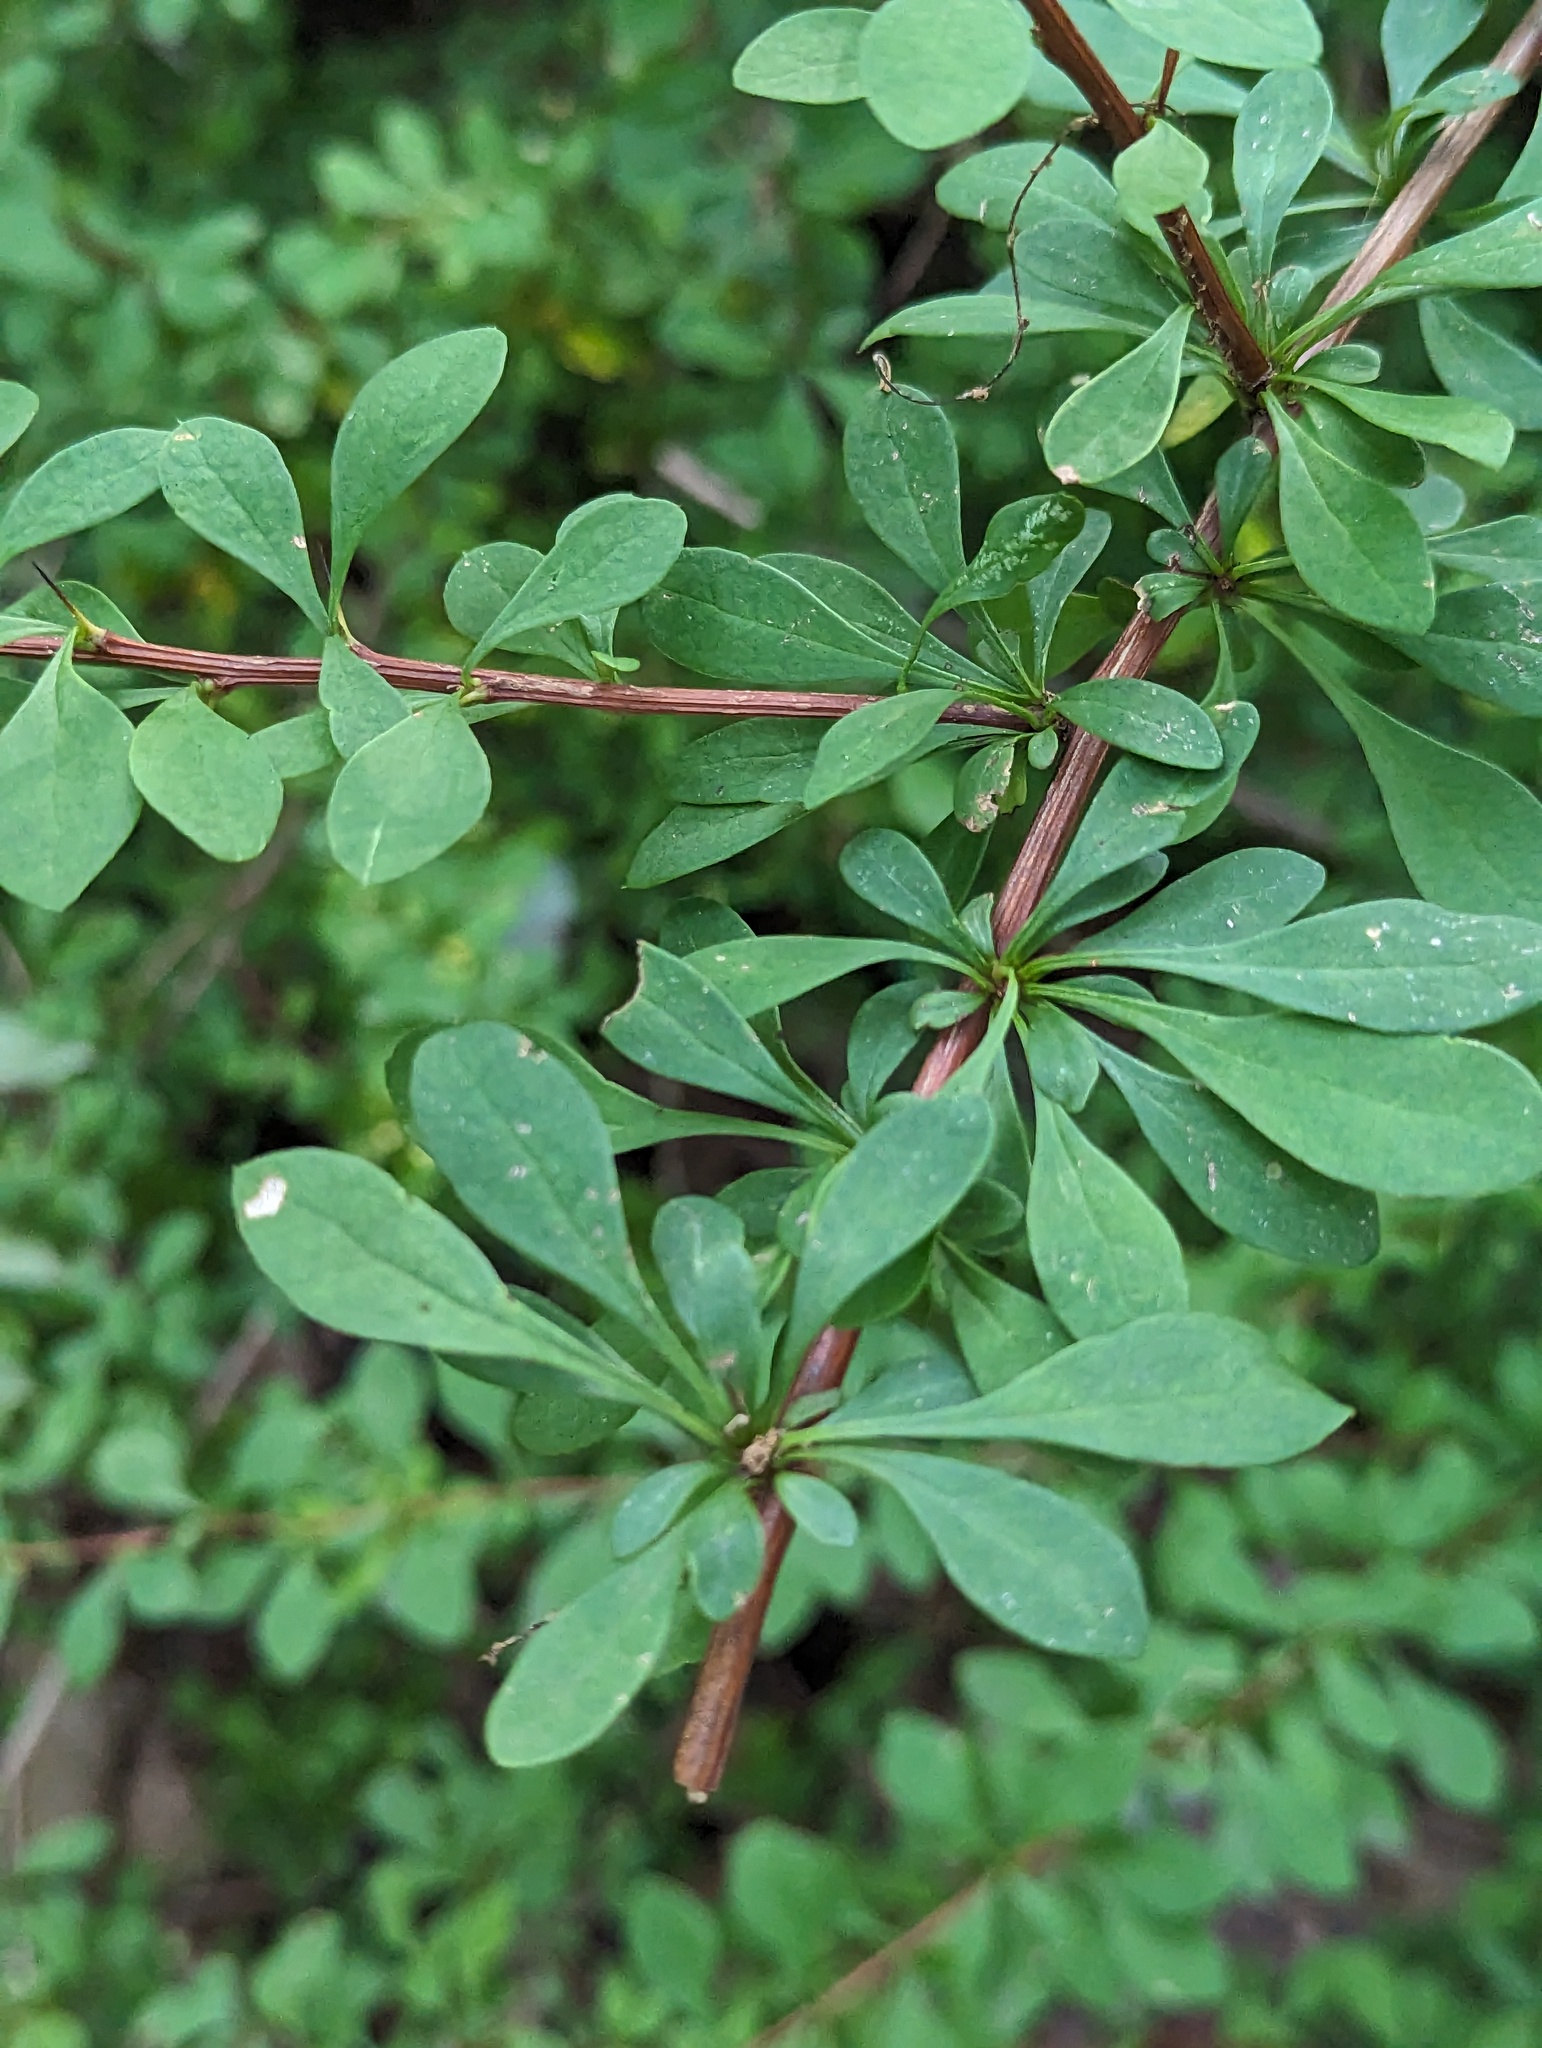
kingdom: Plantae
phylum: Tracheophyta
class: Magnoliopsida
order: Ranunculales
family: Berberidaceae
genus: Berberis
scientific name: Berberis thunbergii
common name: Japanese barberry
